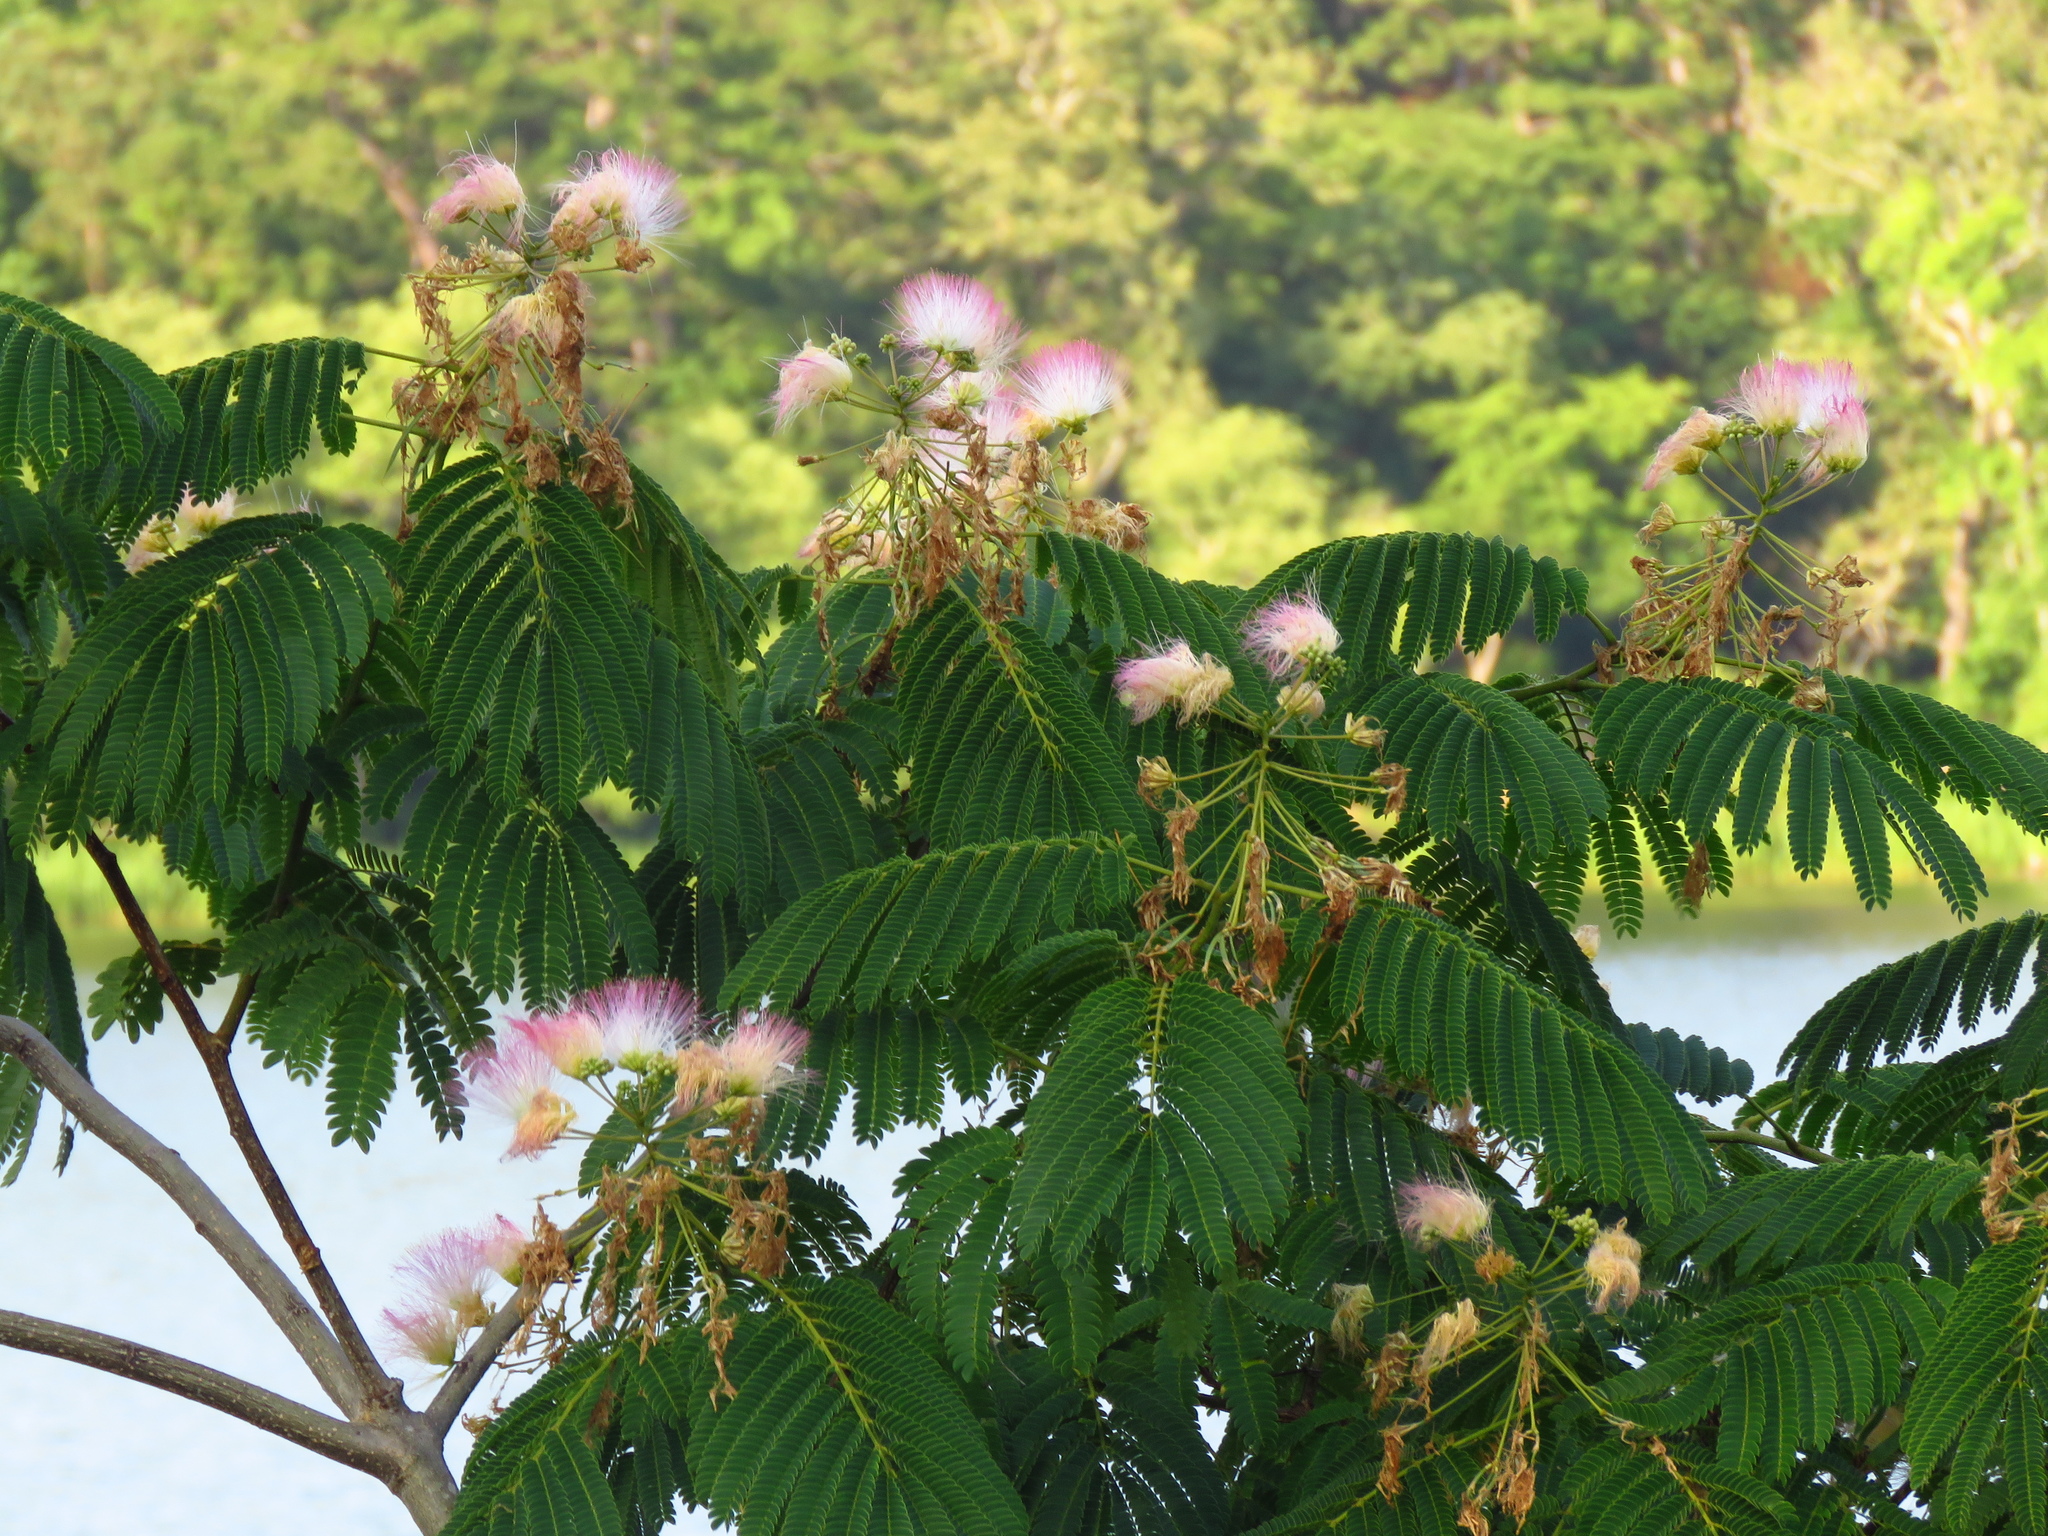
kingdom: Plantae
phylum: Tracheophyta
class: Magnoliopsida
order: Fabales
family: Fabaceae
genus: Albizia
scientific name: Albizia julibrissin
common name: Silktree
